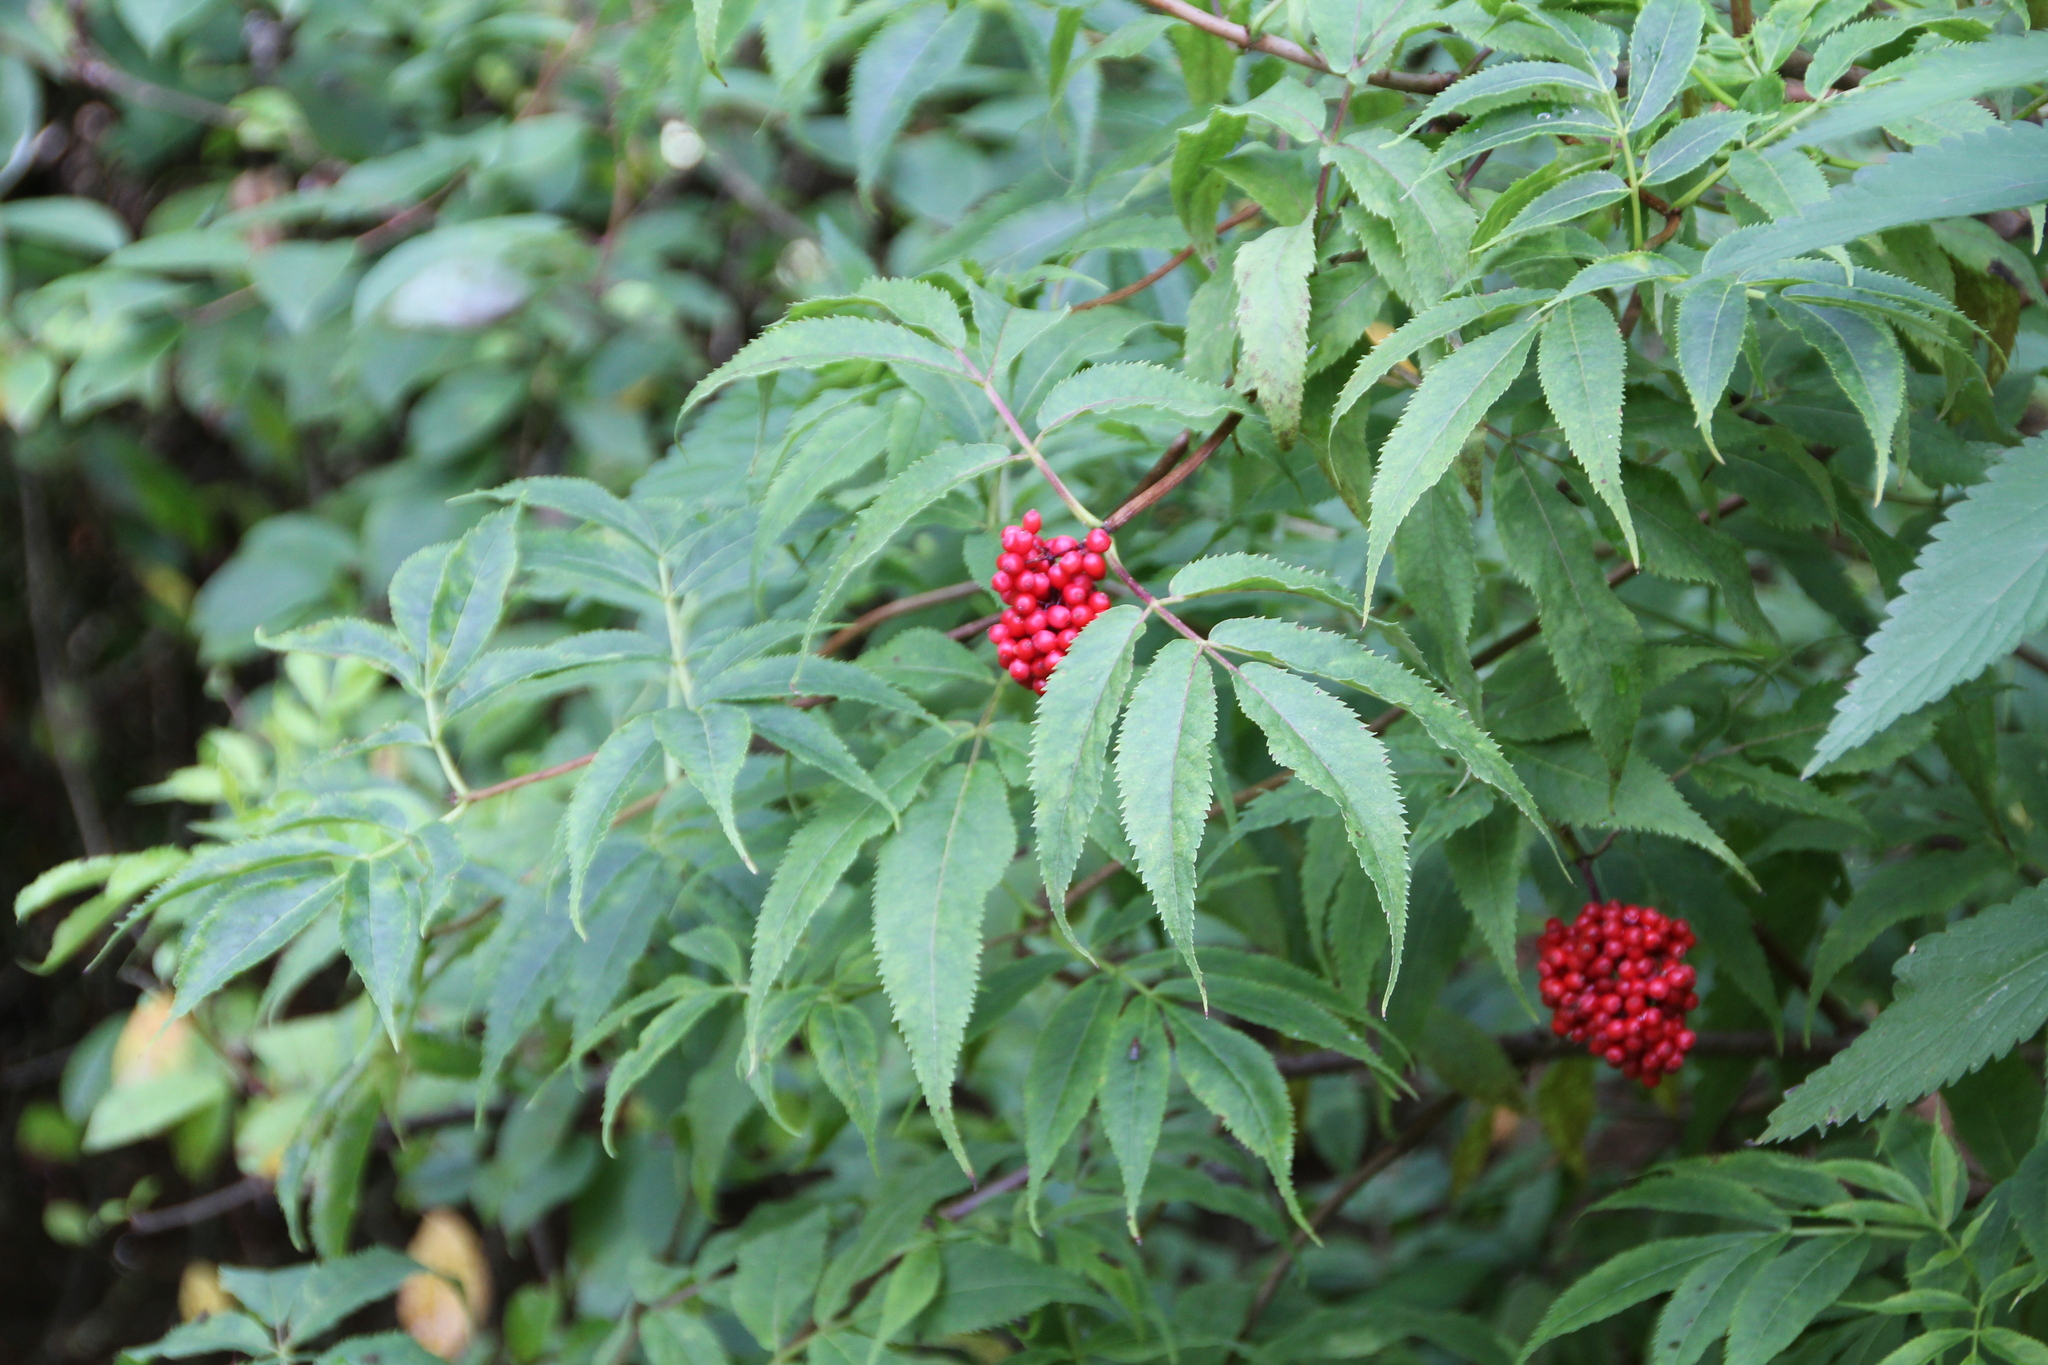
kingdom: Plantae
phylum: Tracheophyta
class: Magnoliopsida
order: Dipsacales
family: Viburnaceae
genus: Sambucus
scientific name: Sambucus racemosa
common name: Red-berried elder
